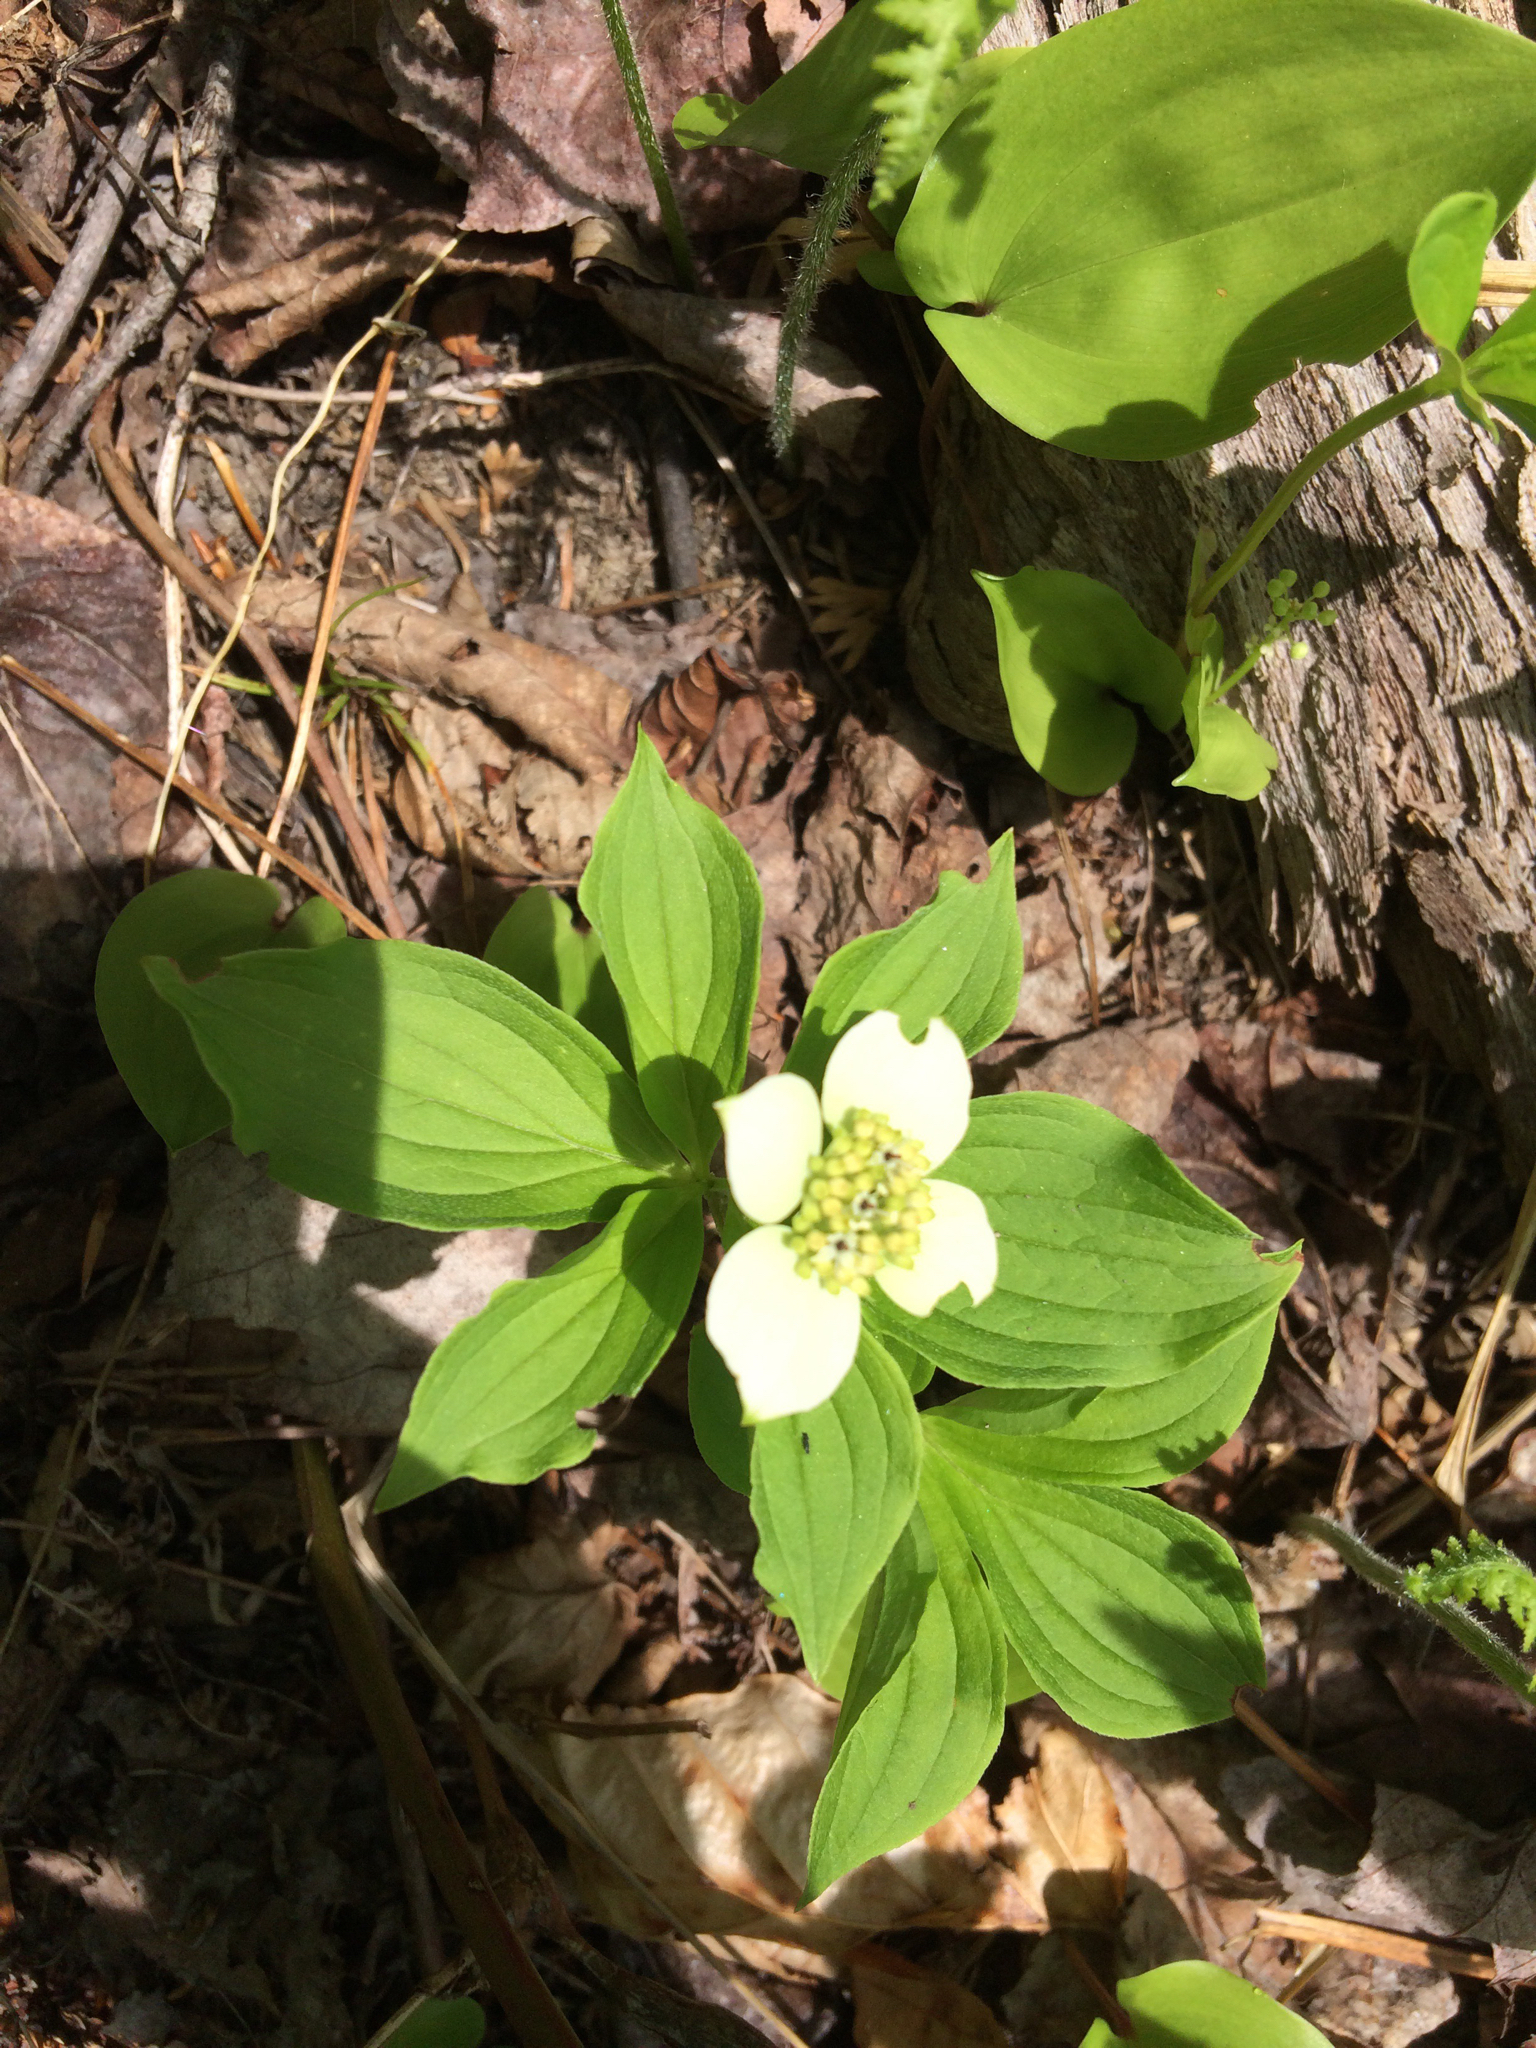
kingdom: Plantae
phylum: Tracheophyta
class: Magnoliopsida
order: Cornales
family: Cornaceae
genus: Cornus
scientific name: Cornus canadensis
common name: Creeping dogwood
